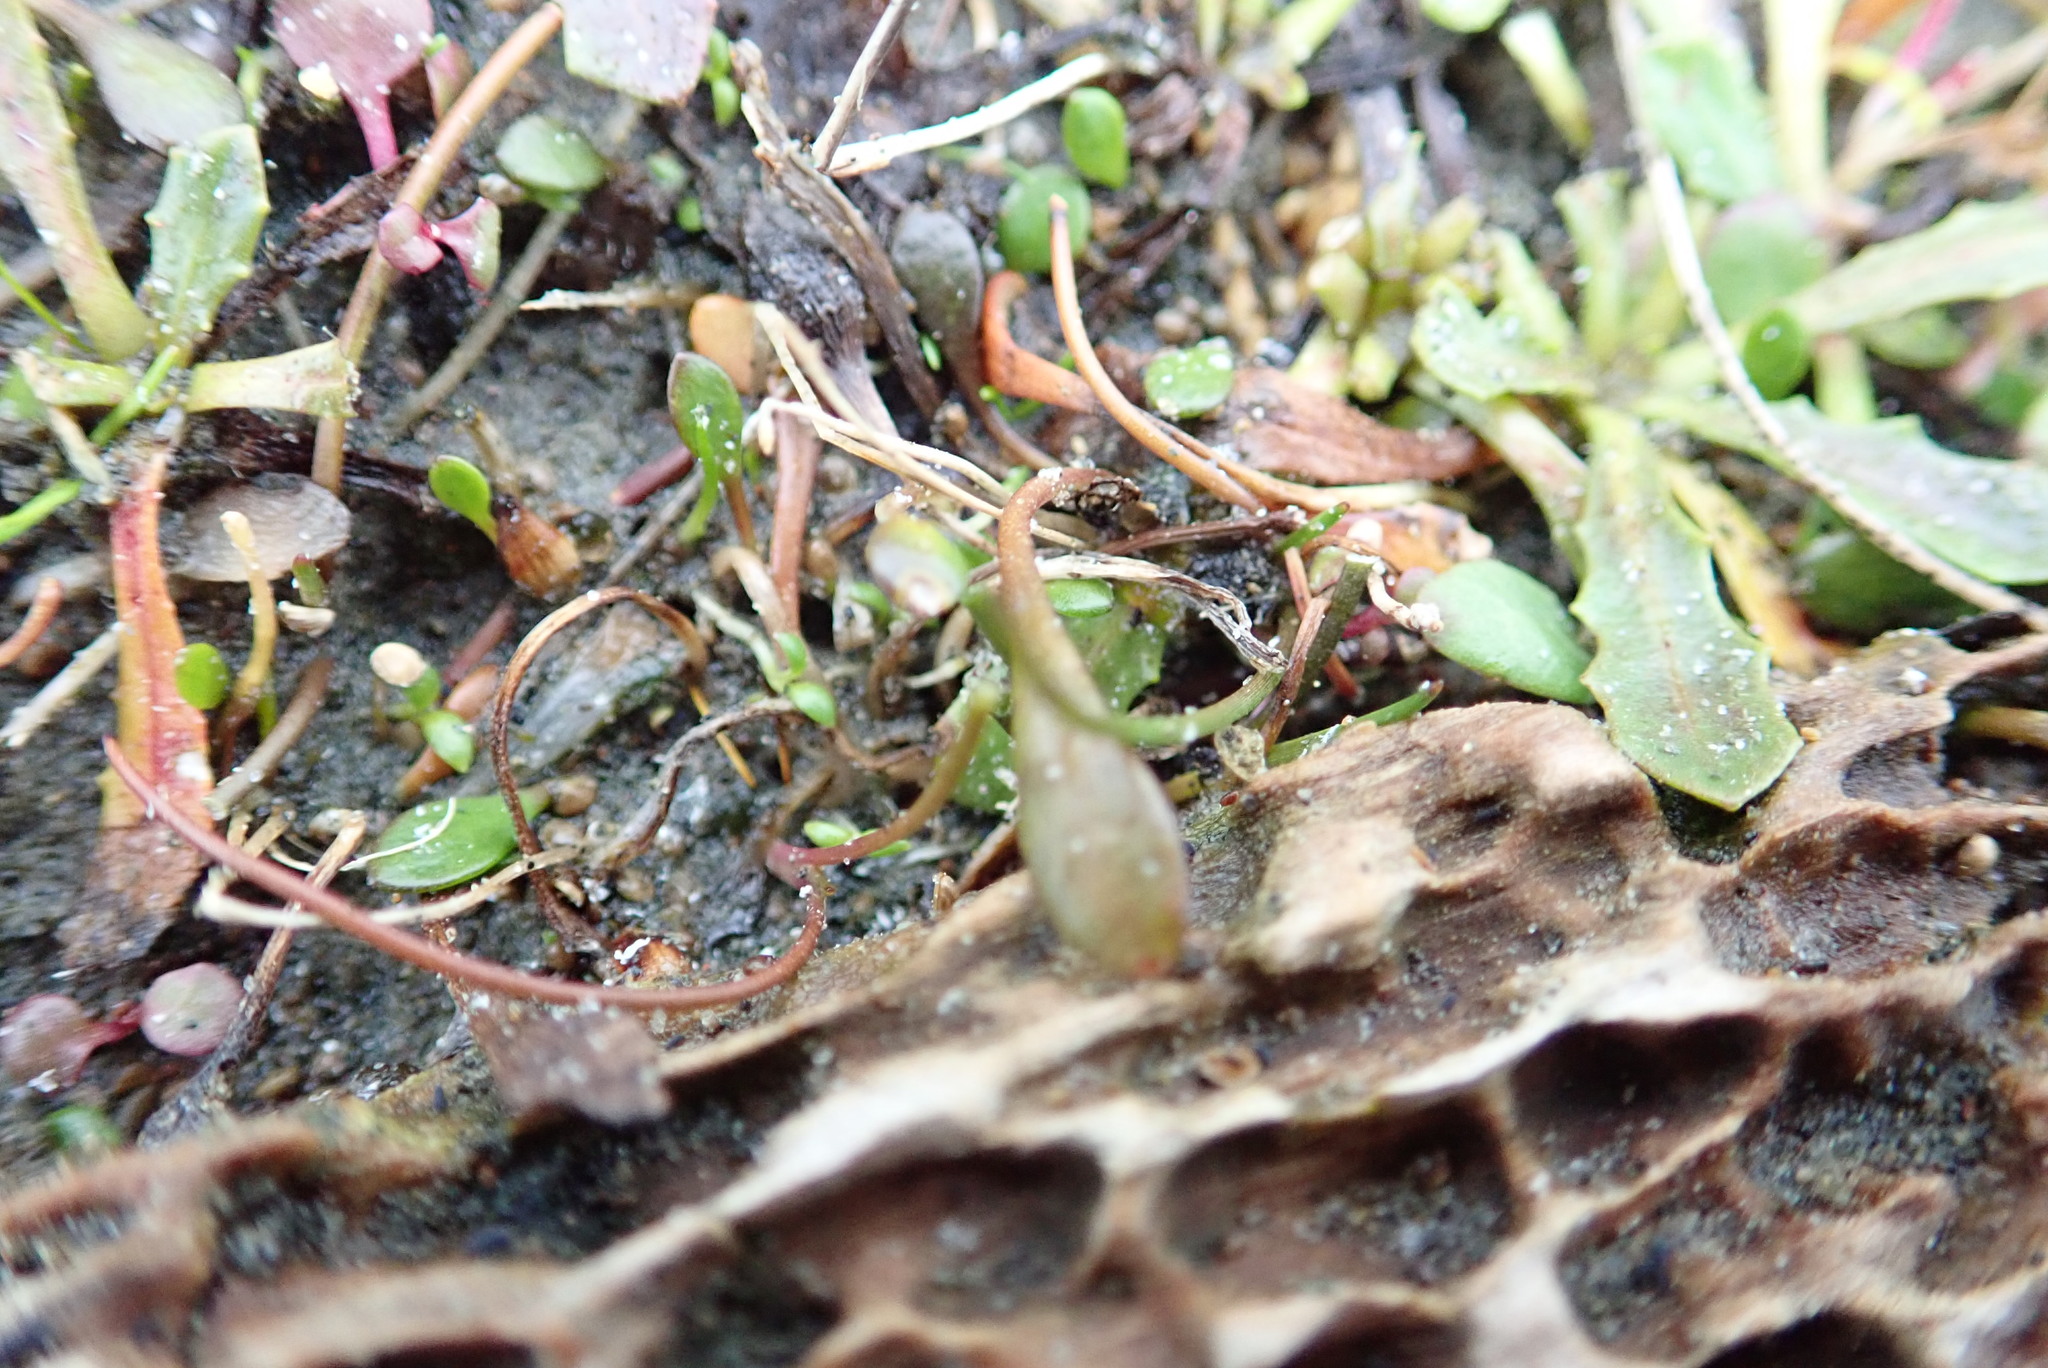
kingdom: Plantae
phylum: Tracheophyta
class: Magnoliopsida
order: Asterales
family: Goodeniaceae
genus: Goodenia
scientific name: Goodenia radicans
